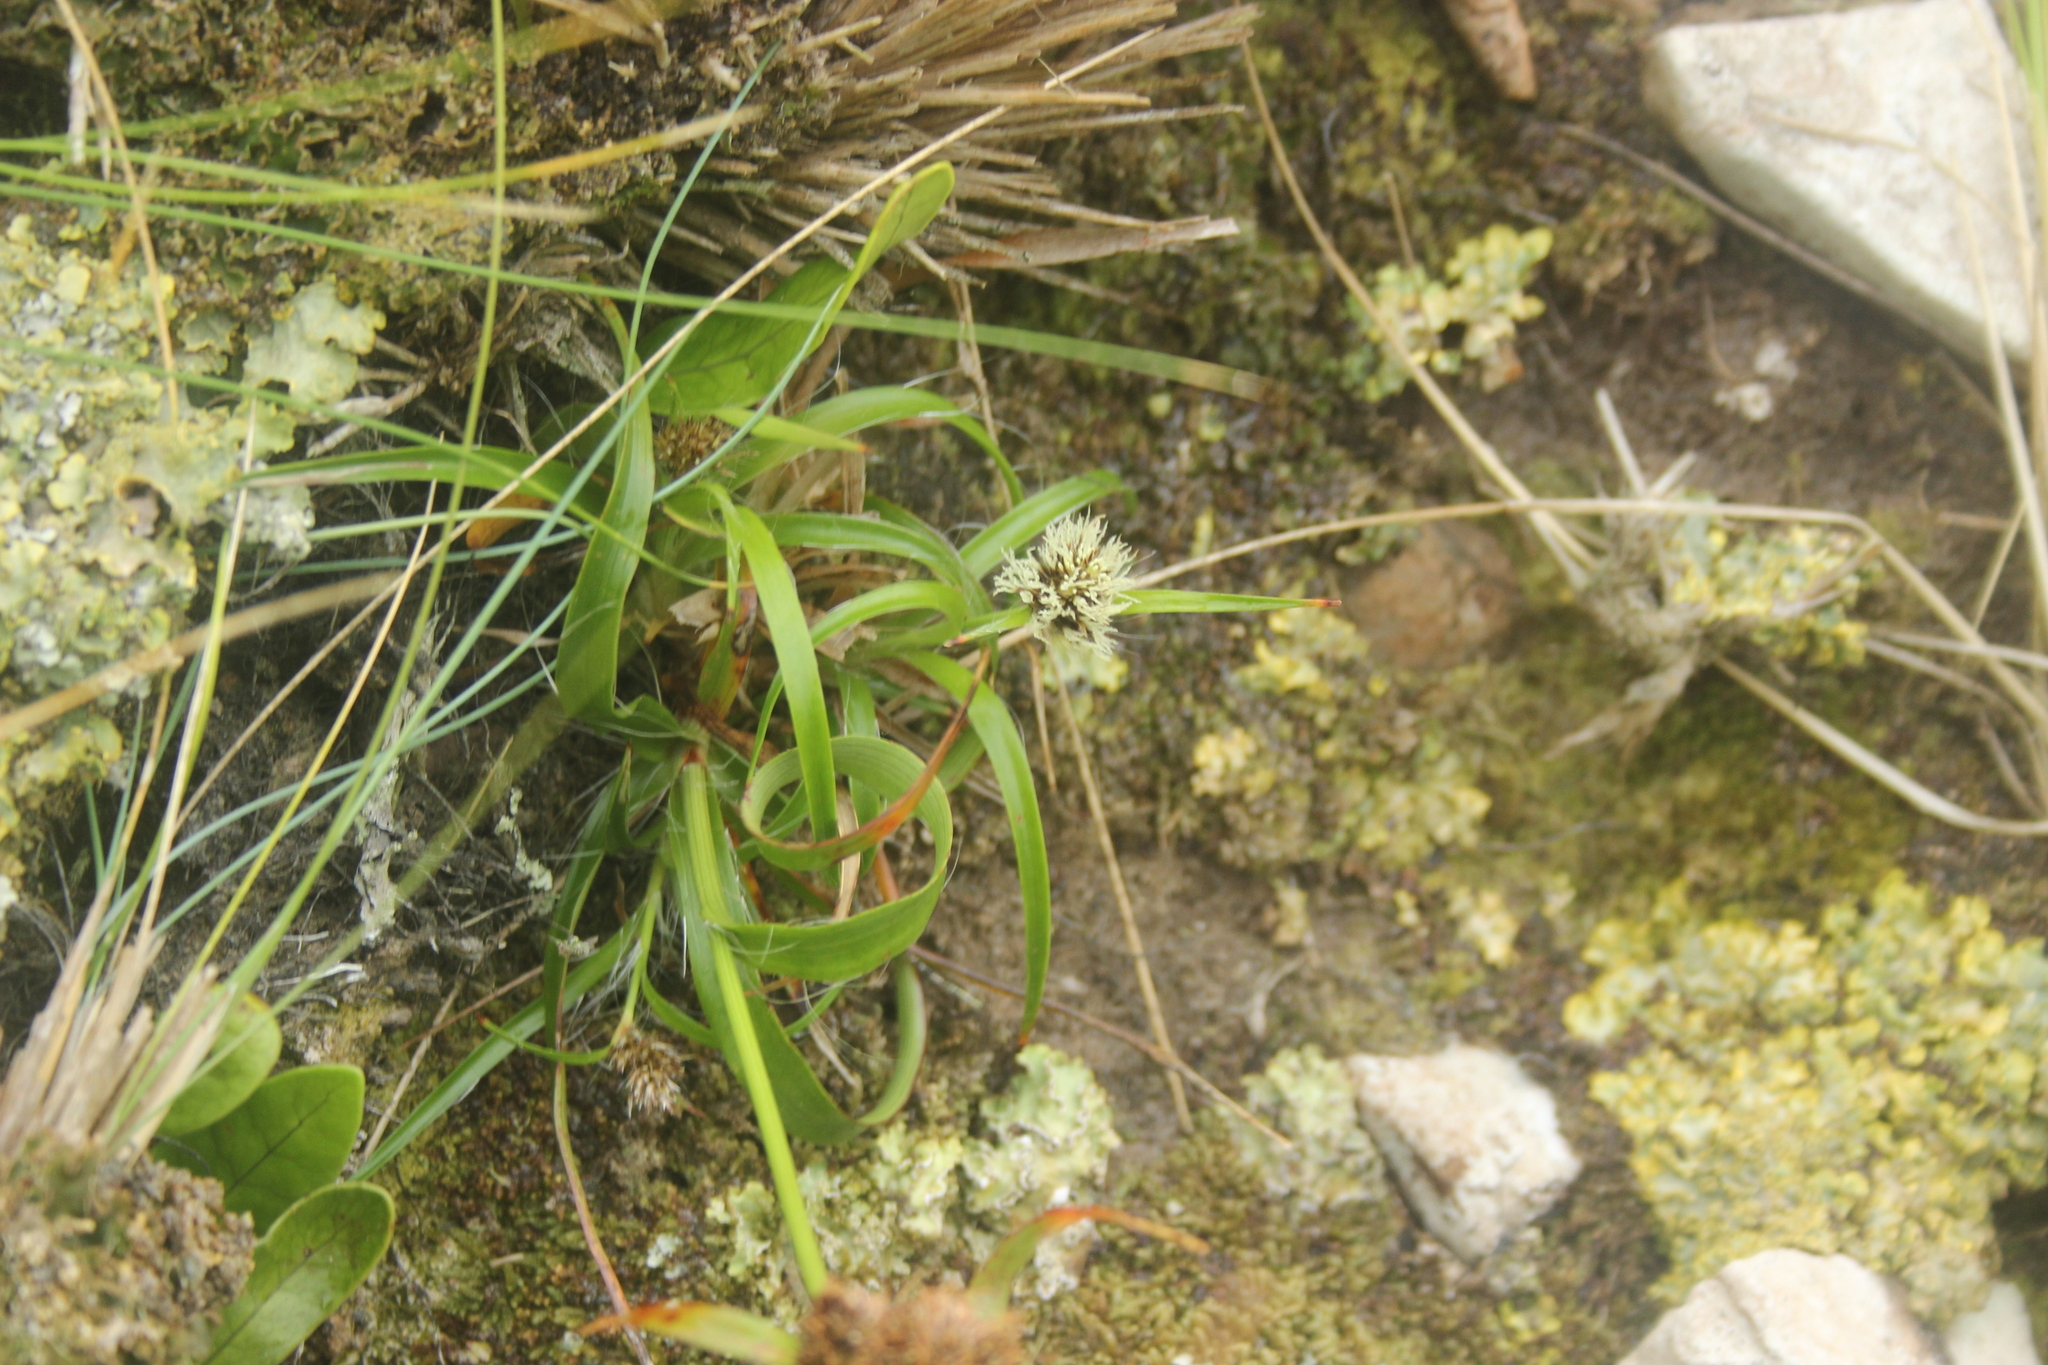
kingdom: Plantae
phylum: Tracheophyta
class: Liliopsida
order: Poales
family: Juncaceae
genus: Luzula
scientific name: Luzula banksiana
